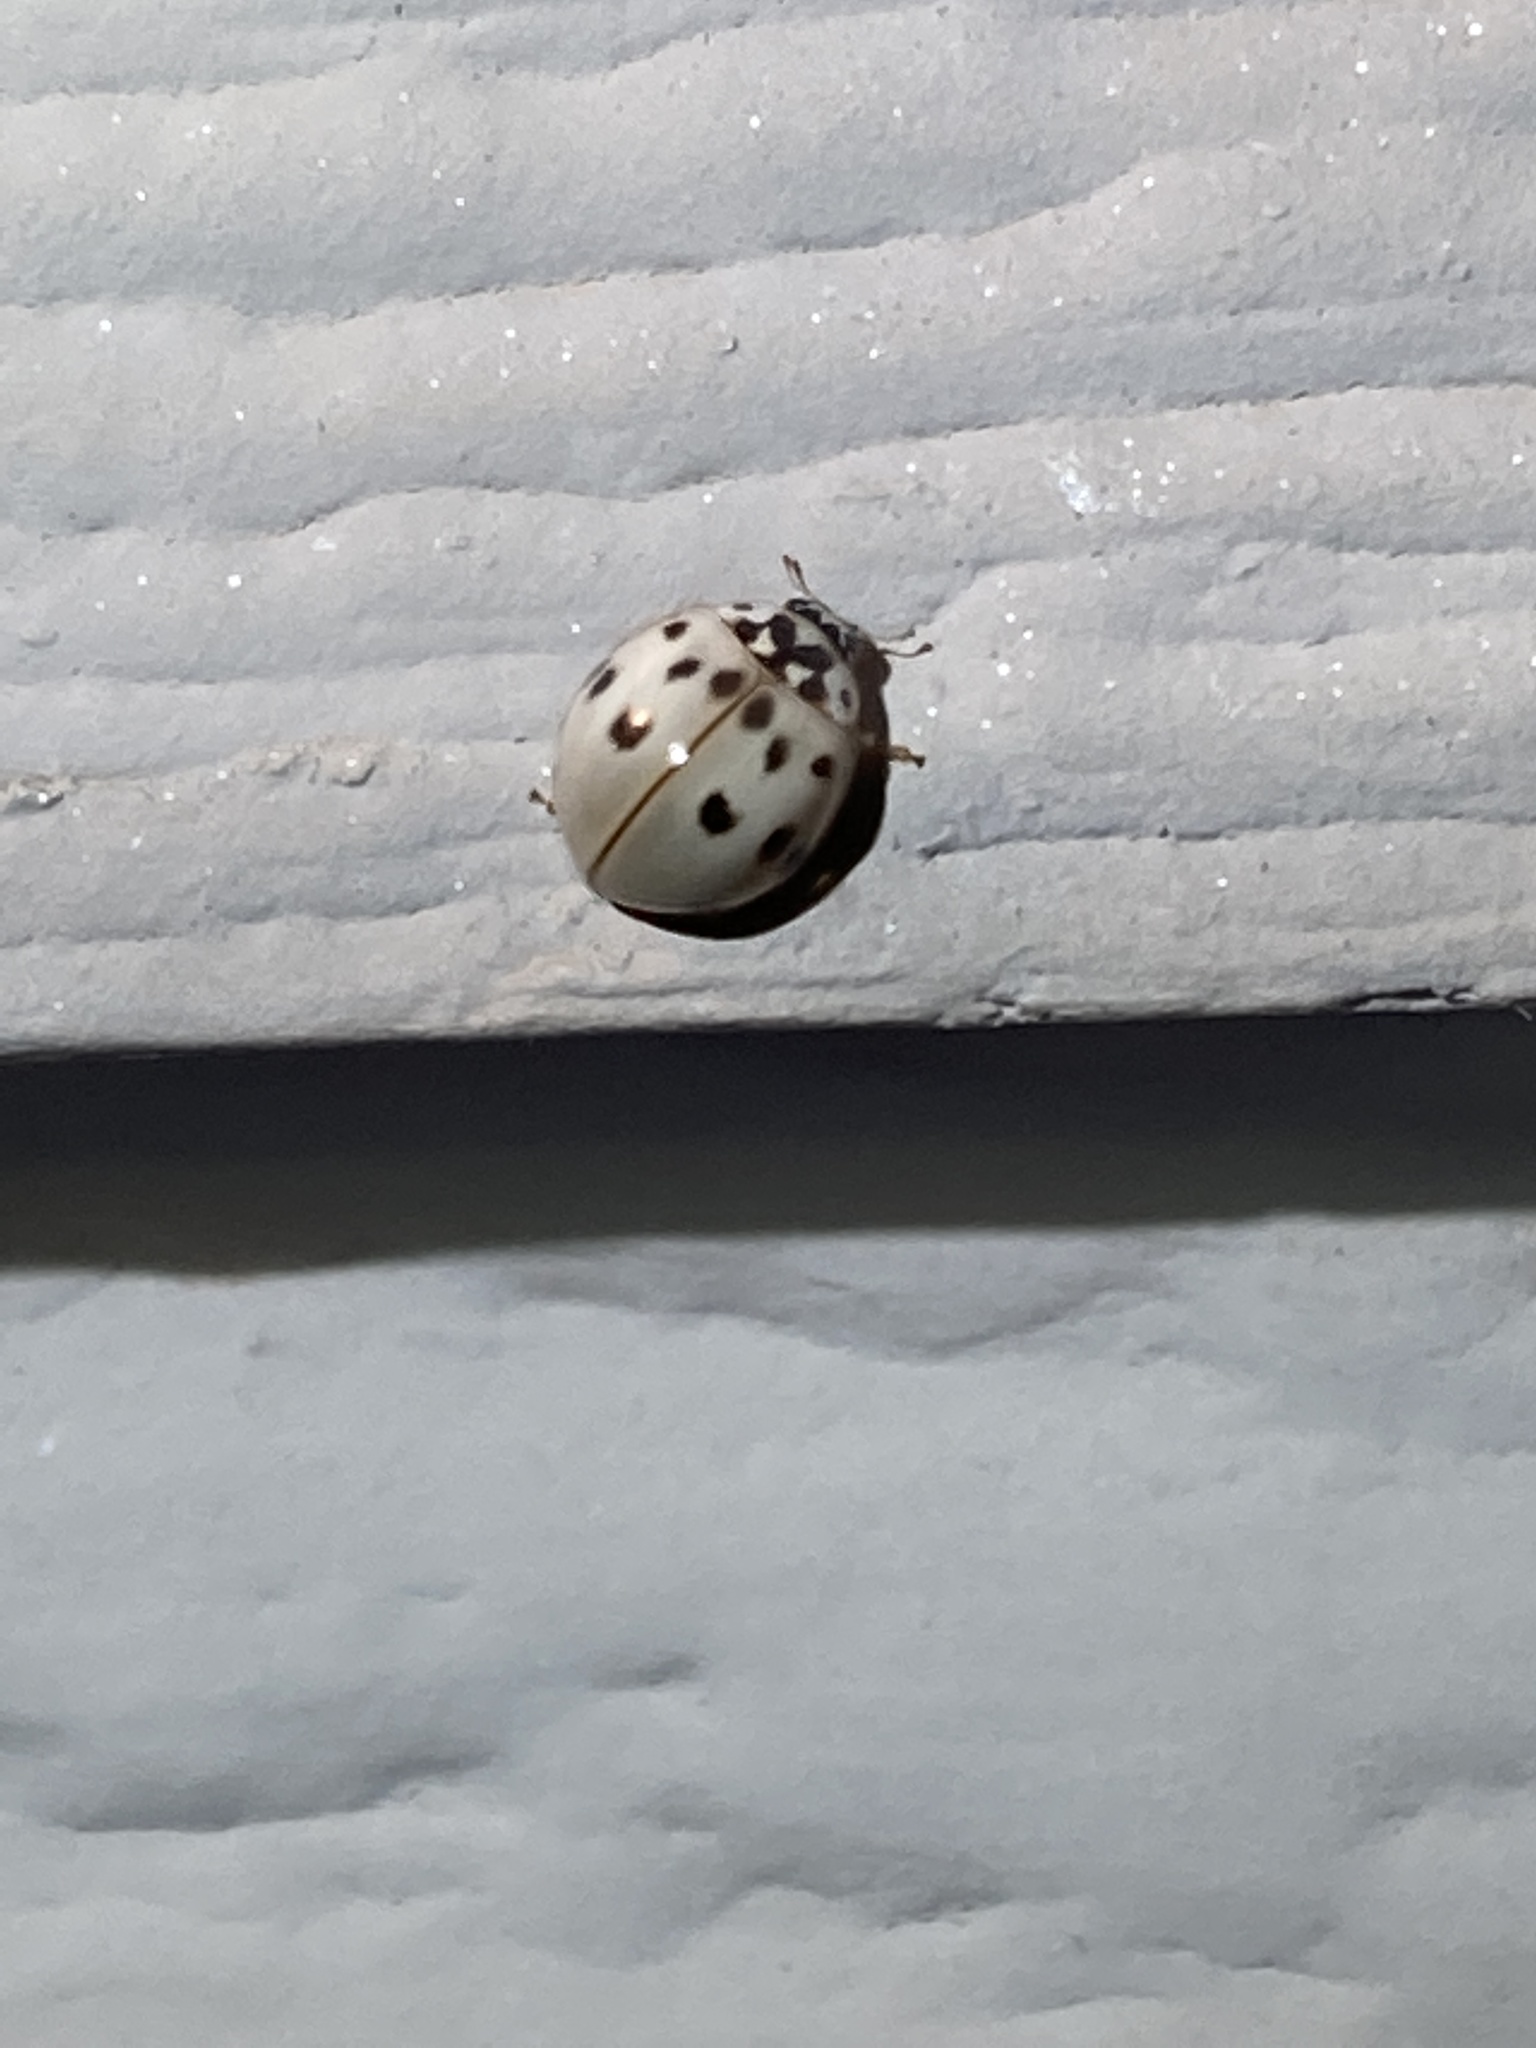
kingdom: Animalia
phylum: Arthropoda
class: Insecta
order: Coleoptera
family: Coccinellidae
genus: Olla
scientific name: Olla v-nigrum
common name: Ashy gray lady beetle
